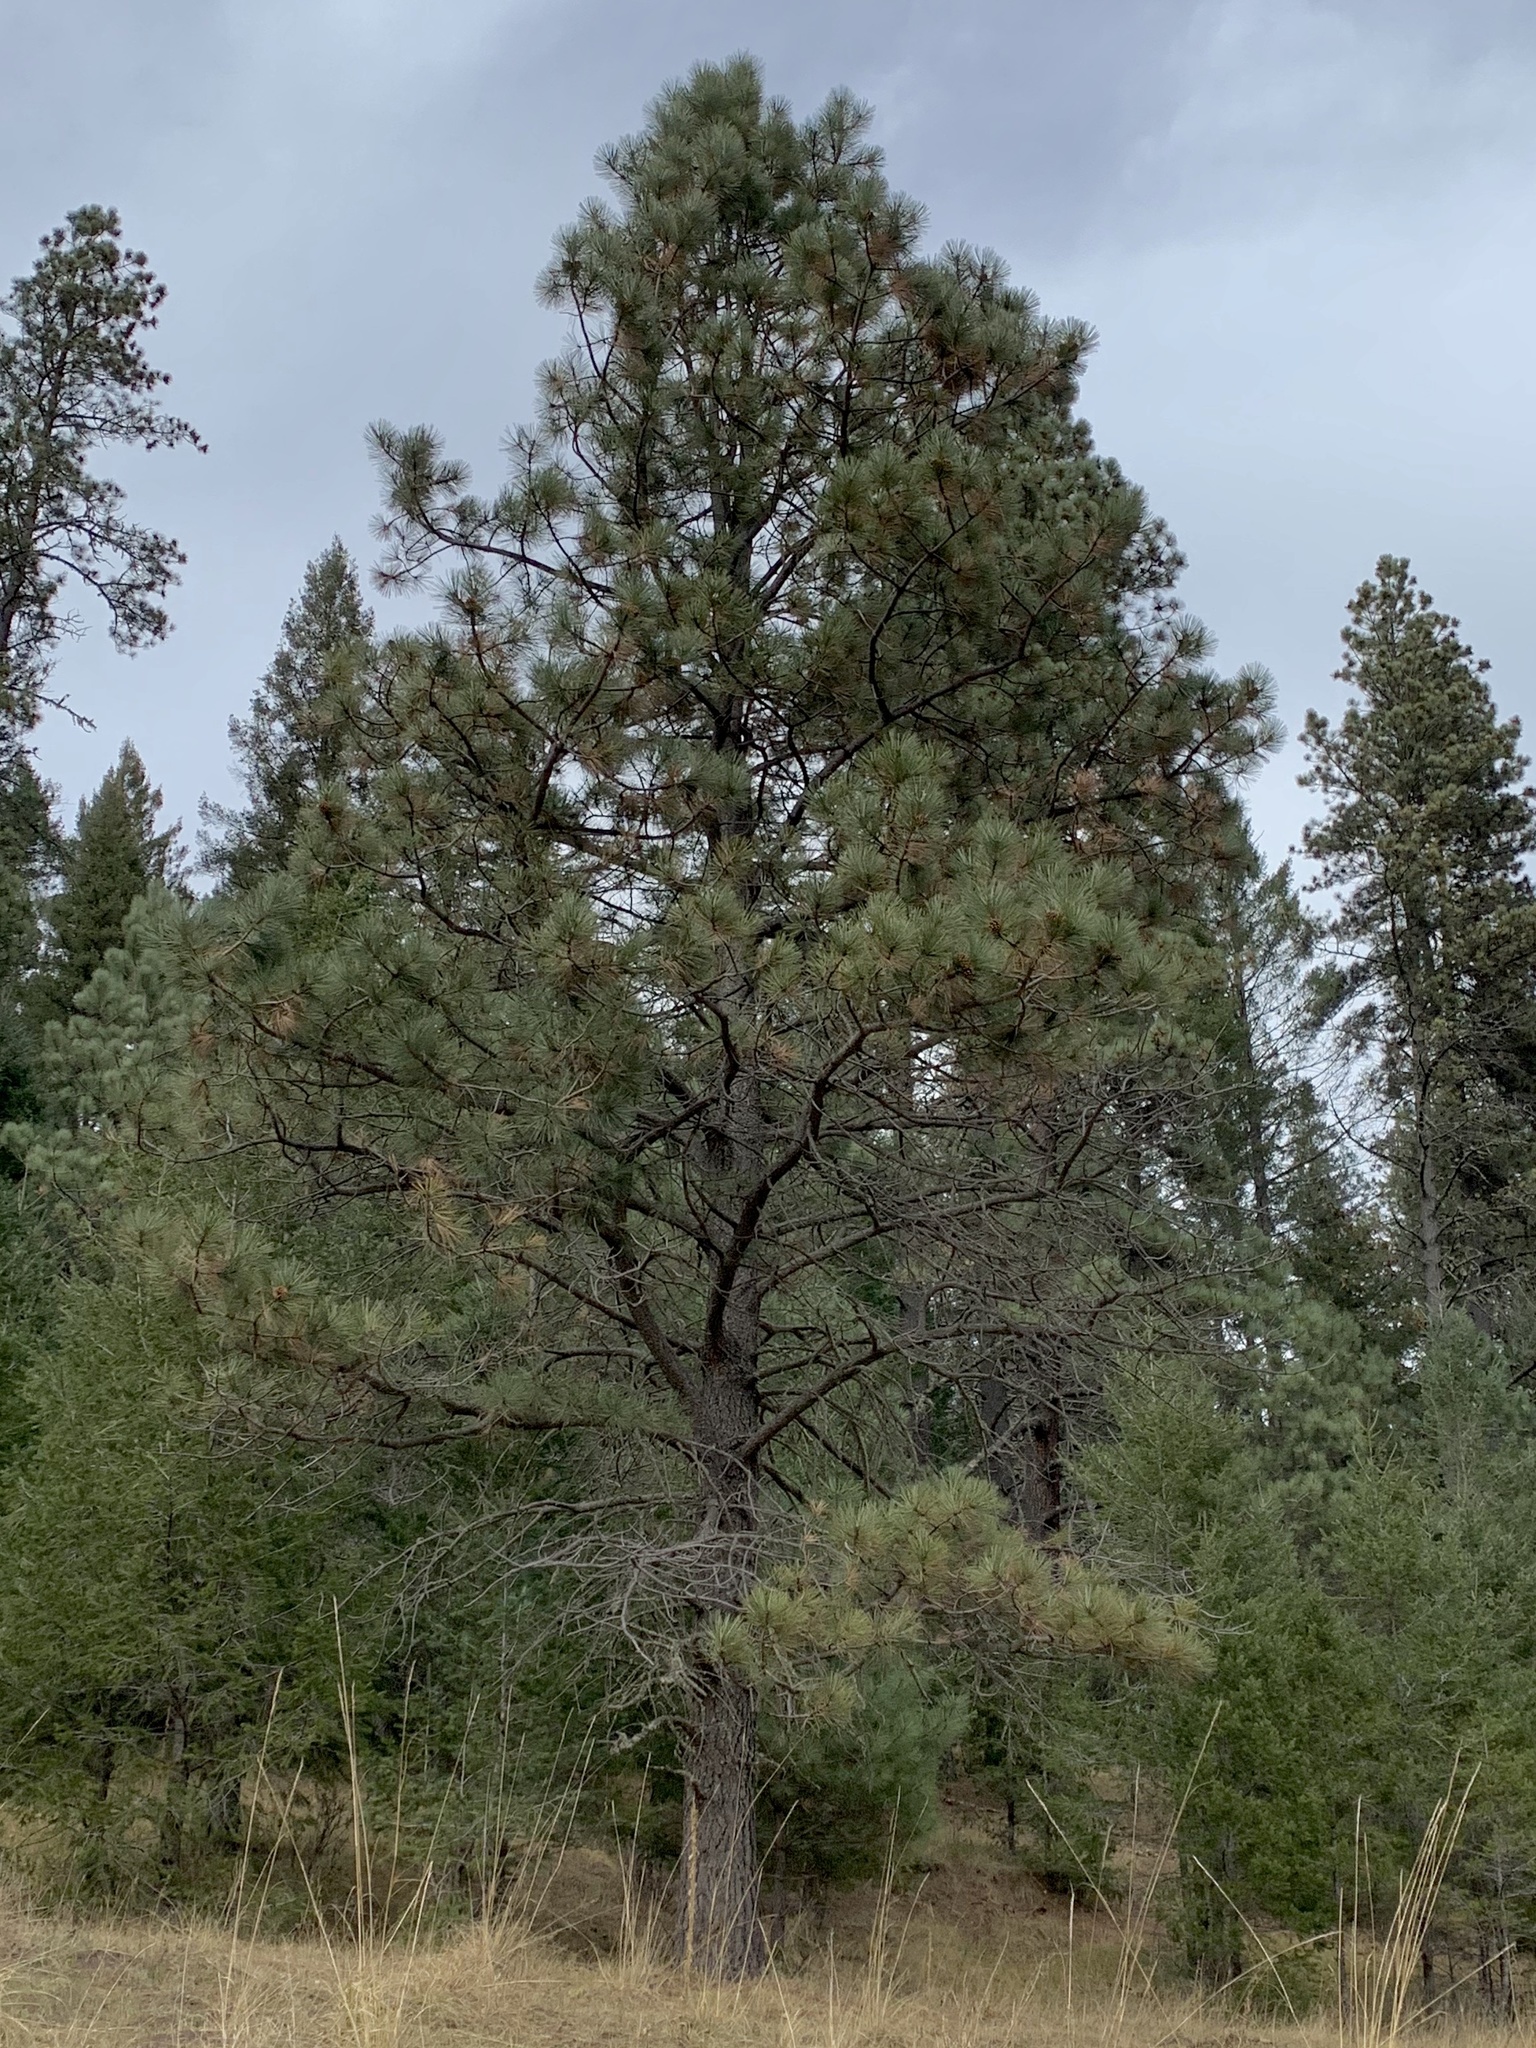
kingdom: Plantae
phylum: Tracheophyta
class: Pinopsida
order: Pinales
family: Pinaceae
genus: Pinus
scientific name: Pinus ponderosa
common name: Western yellow-pine
